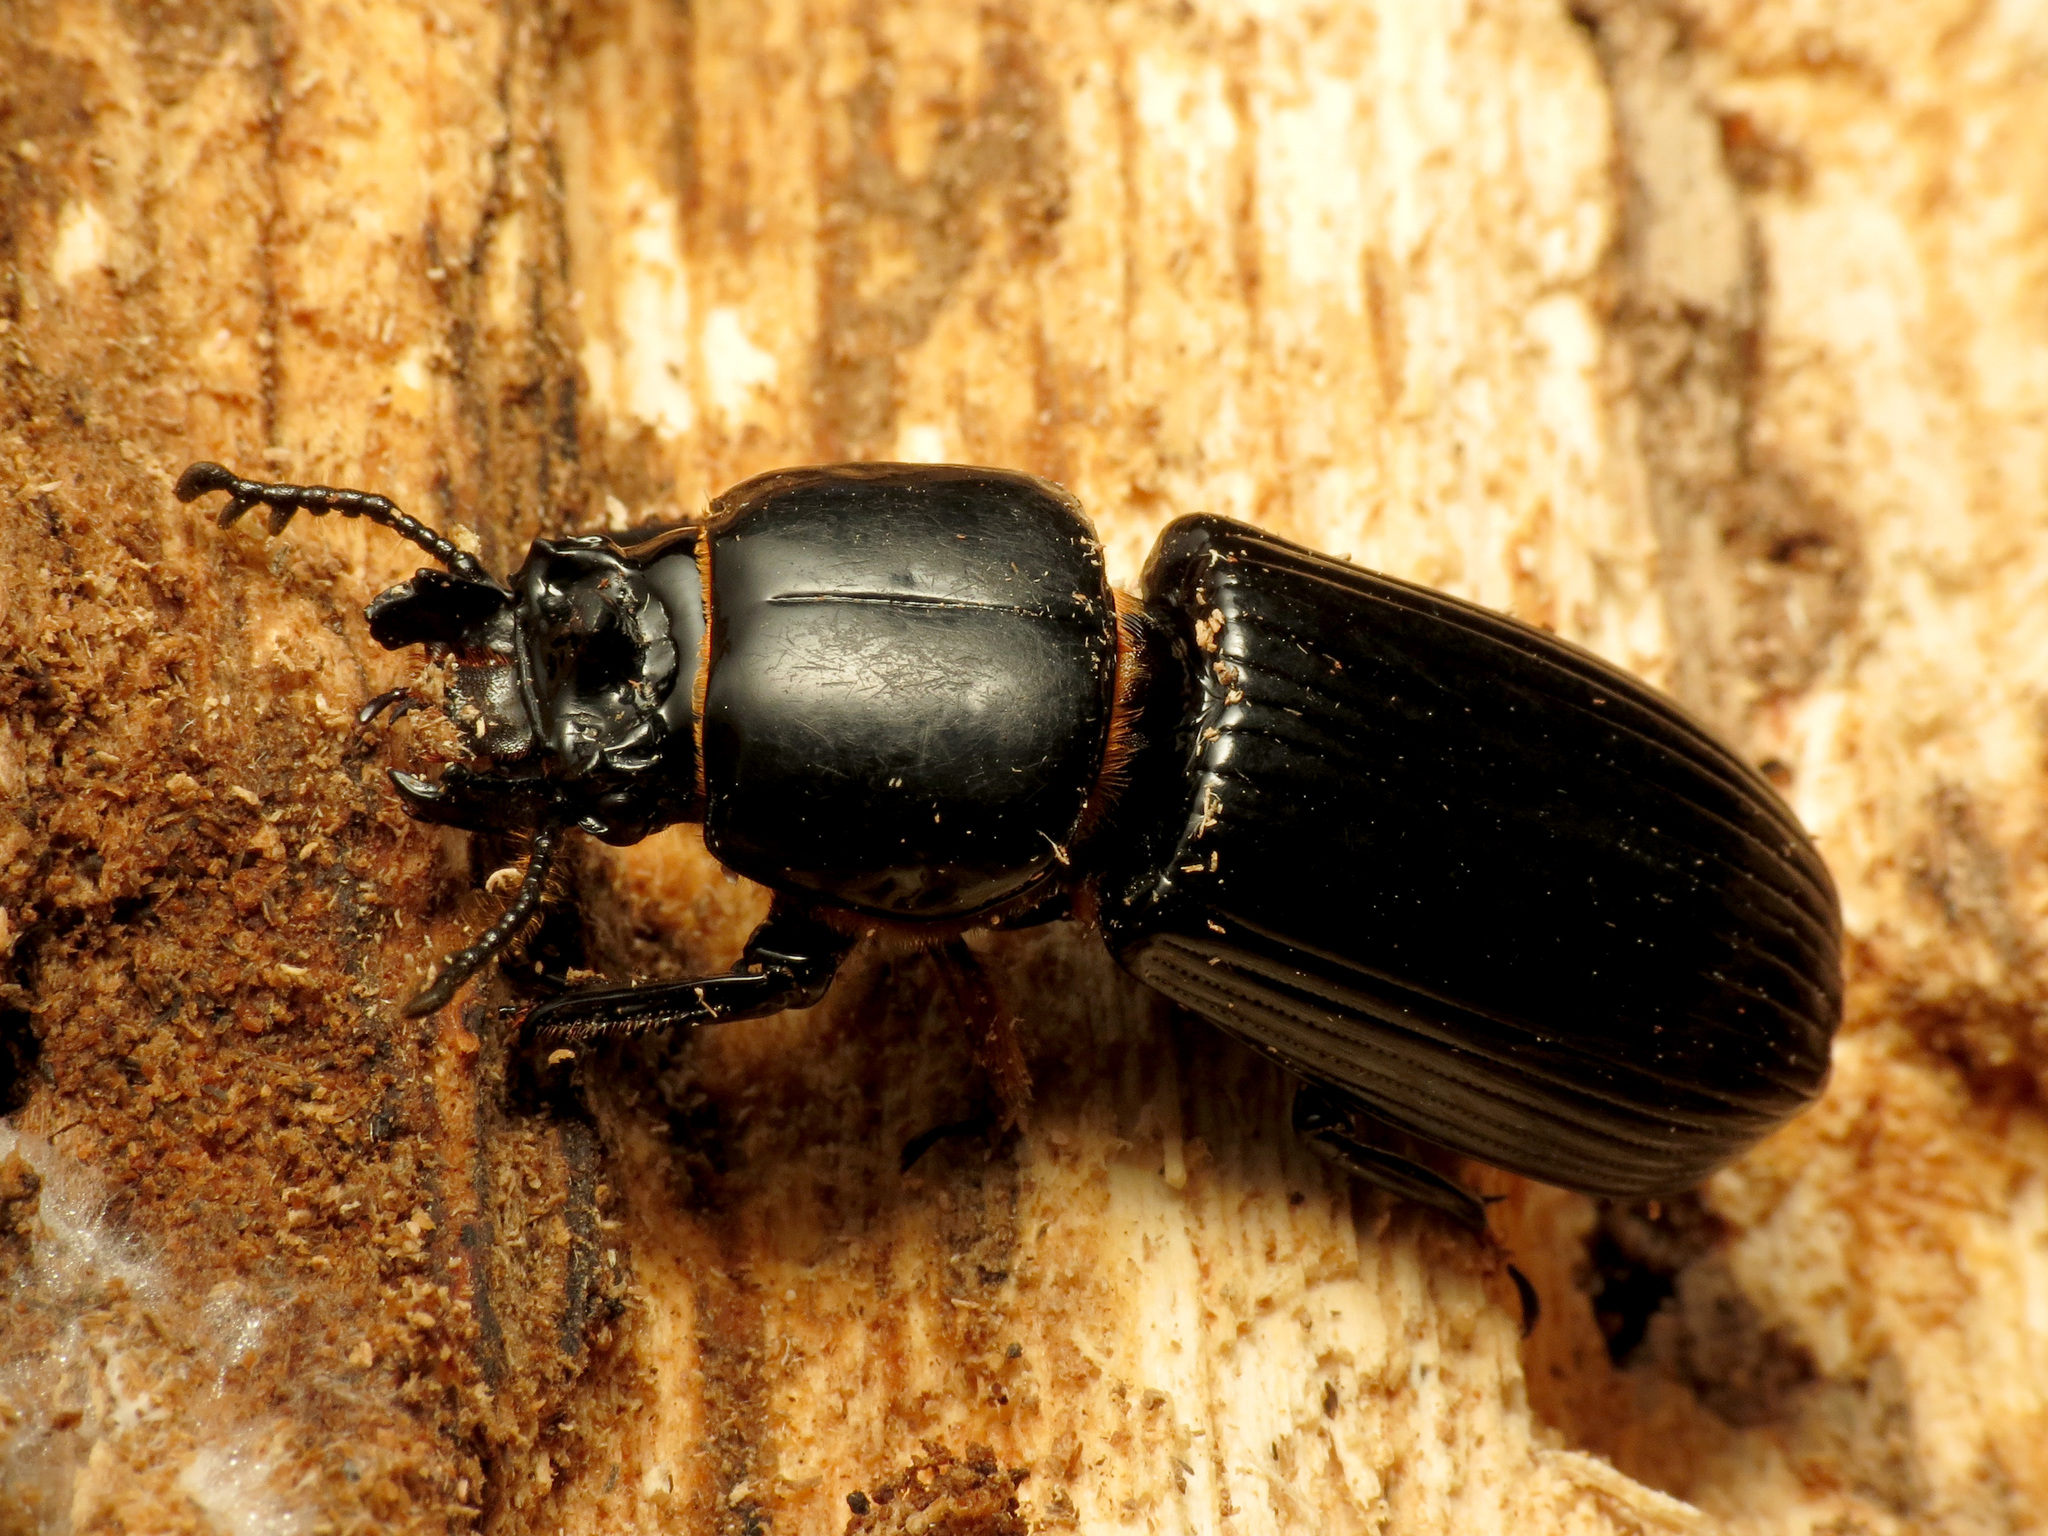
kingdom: Animalia
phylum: Arthropoda
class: Insecta
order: Coleoptera
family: Passalidae
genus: Odontotaenius
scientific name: Odontotaenius disjunctus
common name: Patent leather beetle
